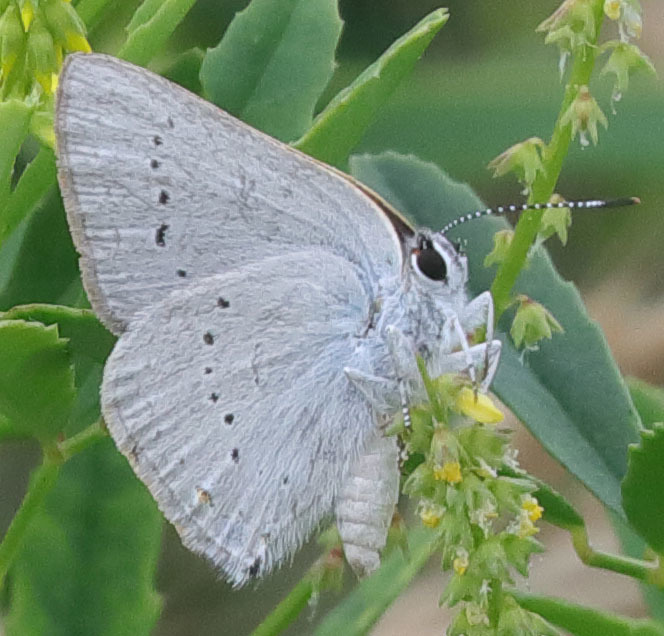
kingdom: Animalia
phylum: Arthropoda
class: Insecta
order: Lepidoptera
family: Lycaenidae
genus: Strymon
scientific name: Strymon sylvinus
